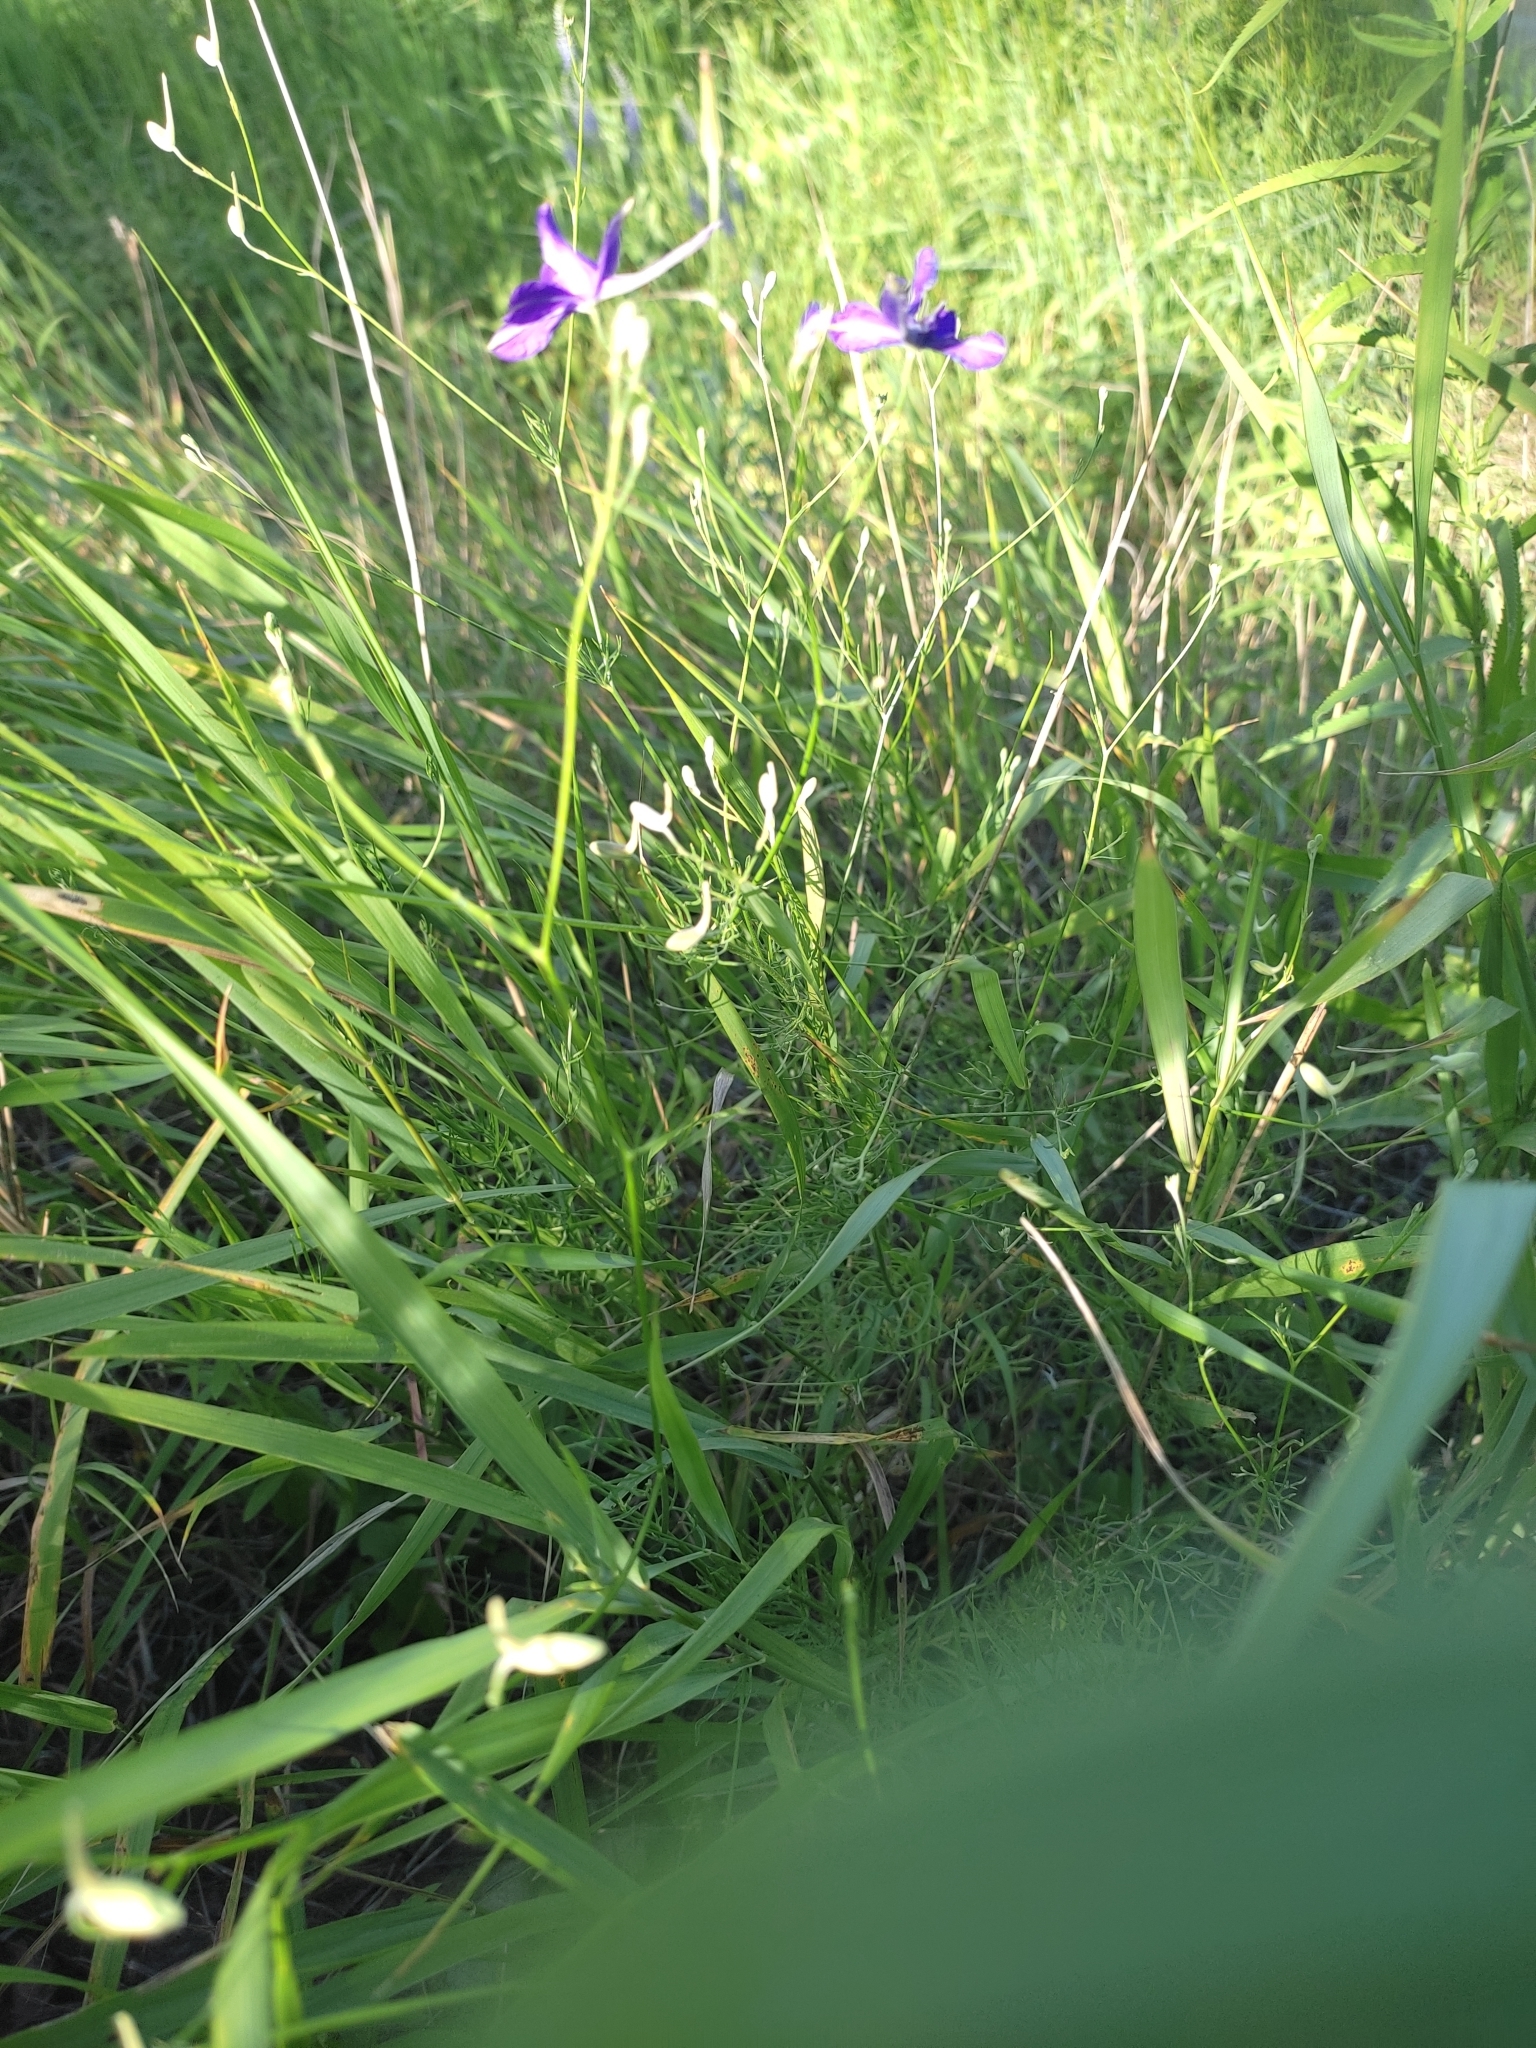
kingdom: Plantae
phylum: Tracheophyta
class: Magnoliopsida
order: Ranunculales
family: Ranunculaceae
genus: Delphinium
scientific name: Delphinium consolida
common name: Branching larkspur
